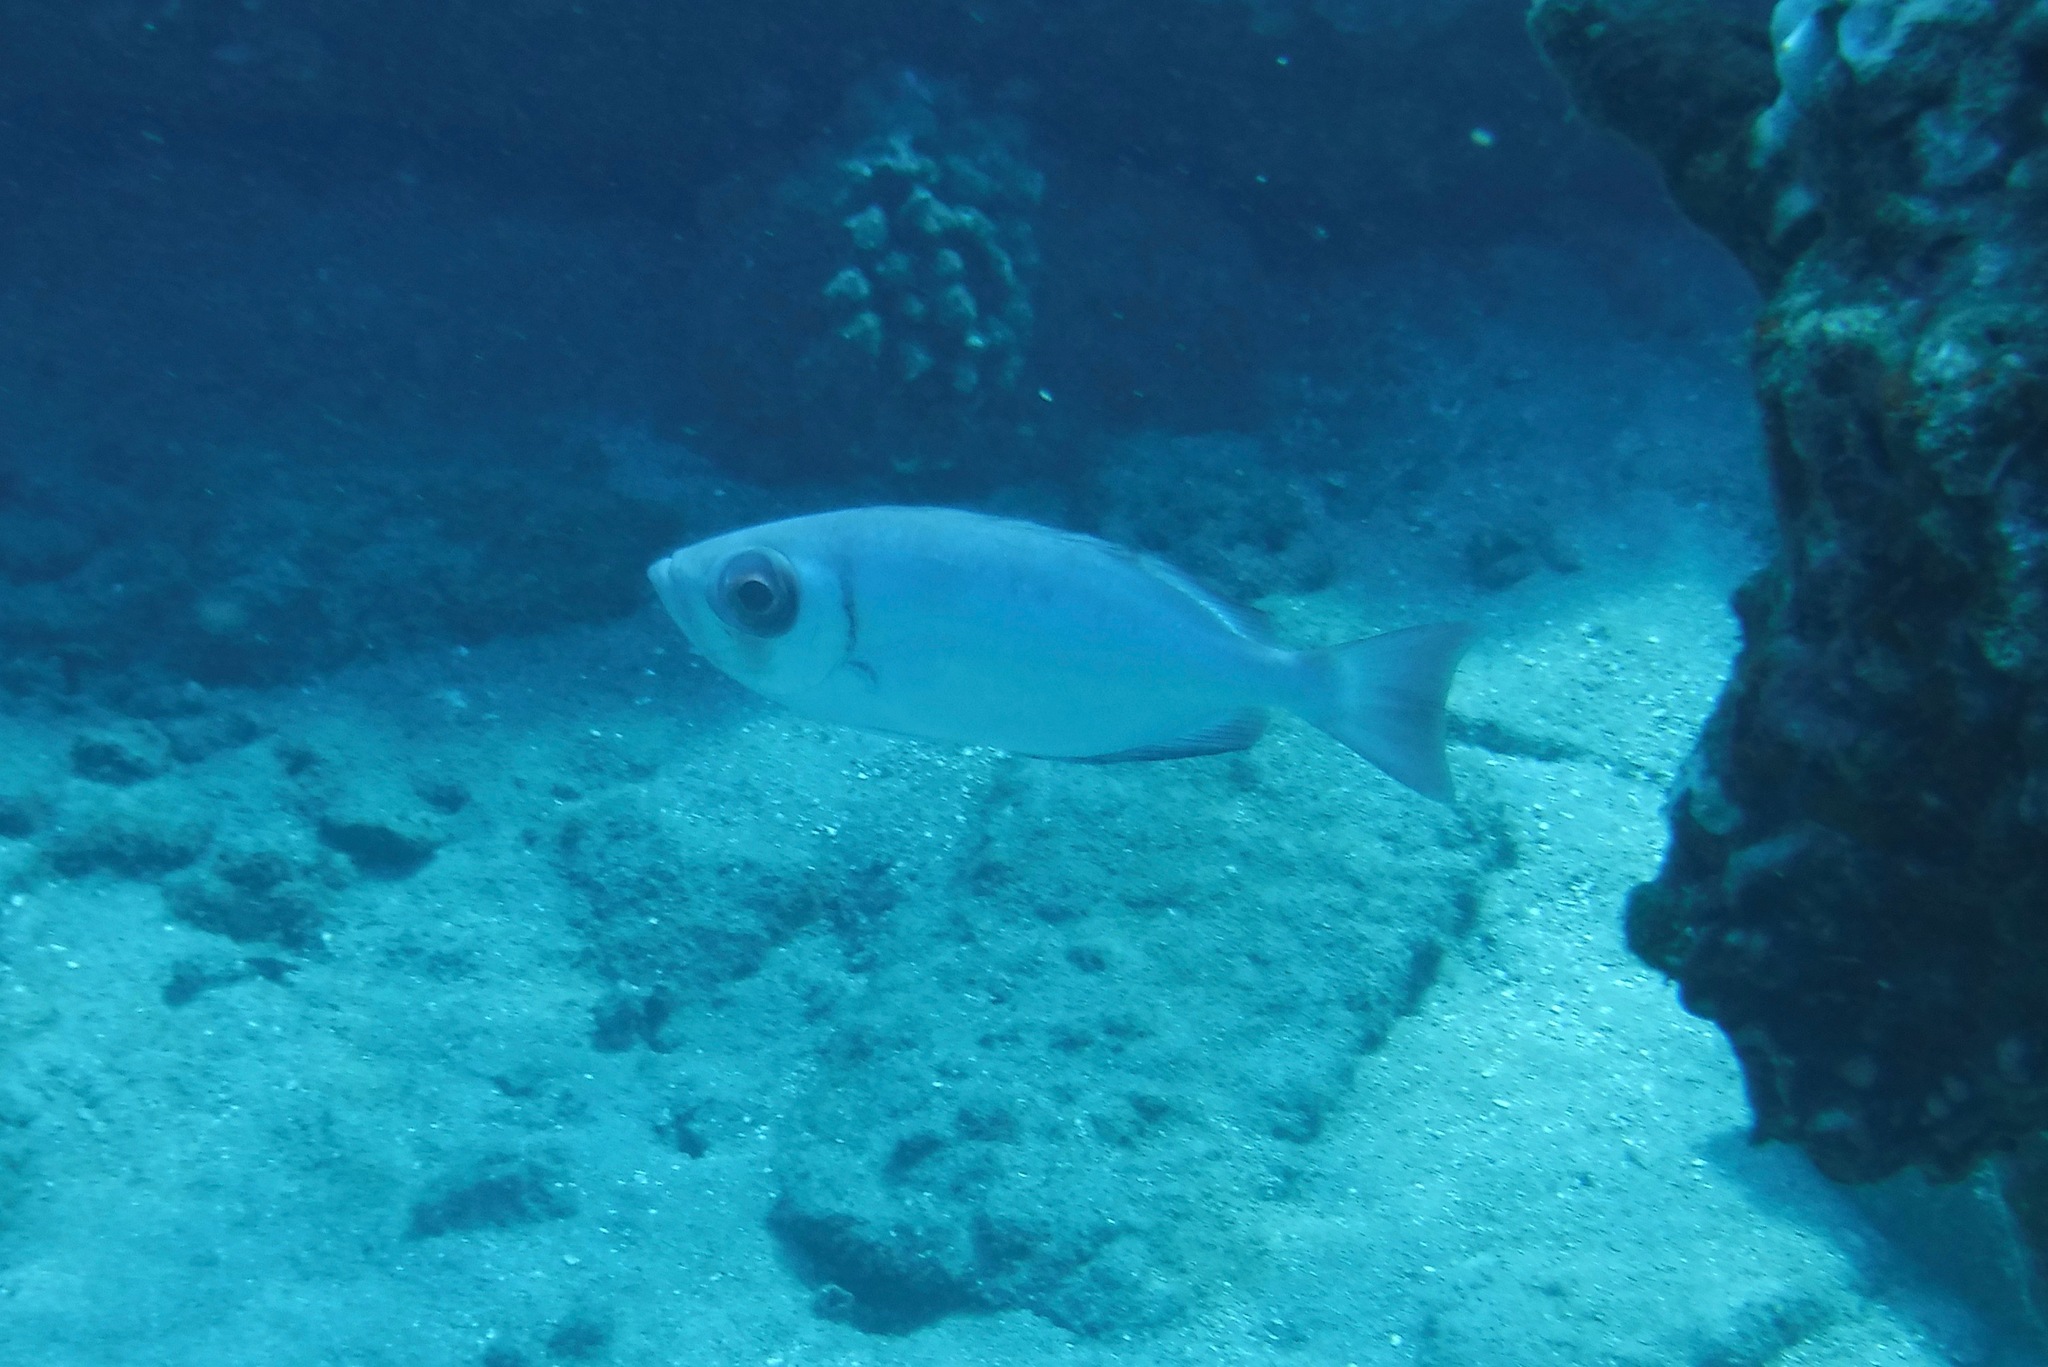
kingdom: Animalia
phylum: Chordata
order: Perciformes
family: Priacanthidae
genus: Priacanthus
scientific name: Priacanthus meeki
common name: Hawaiian bigeye
